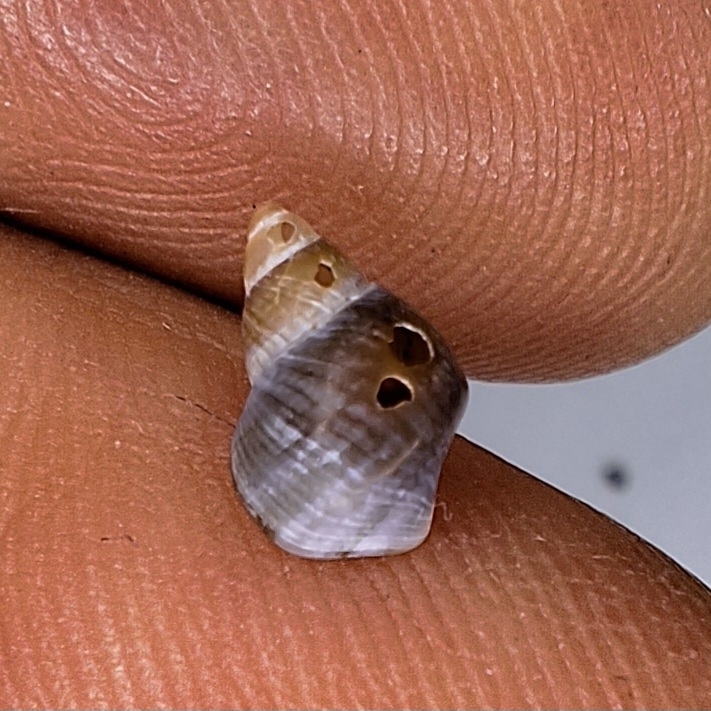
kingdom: Animalia
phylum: Mollusca
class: Gastropoda
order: Littorinimorpha
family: Littorinidae
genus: Lacuna
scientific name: Lacuna vincta
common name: Banded chink shell
